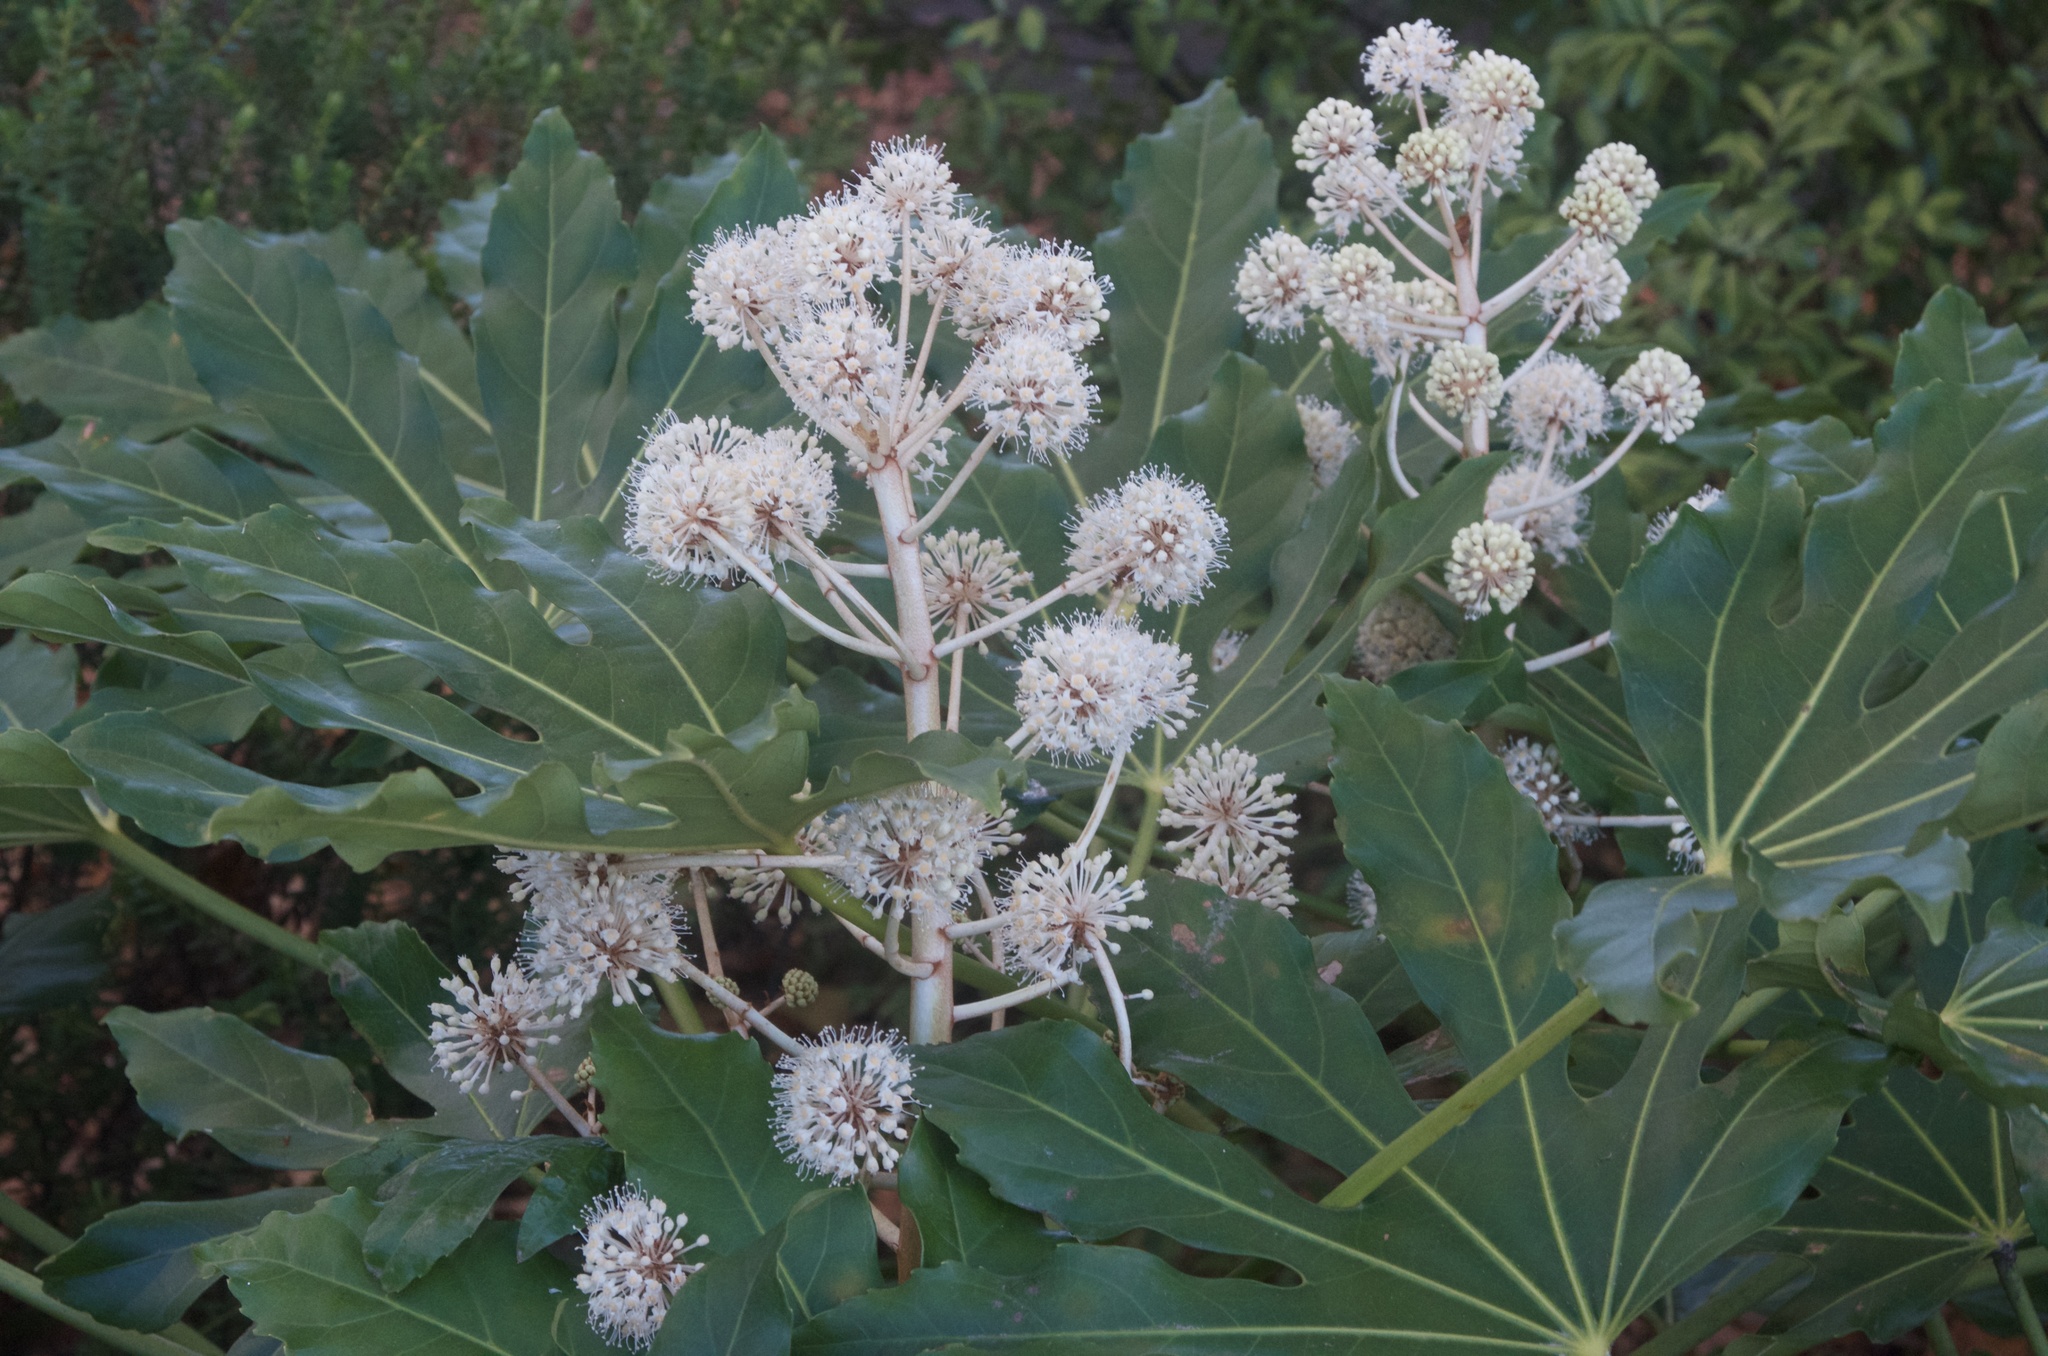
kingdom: Plantae
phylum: Tracheophyta
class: Magnoliopsida
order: Apiales
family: Araliaceae
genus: Fatsia
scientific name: Fatsia japonica
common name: Fatsia
